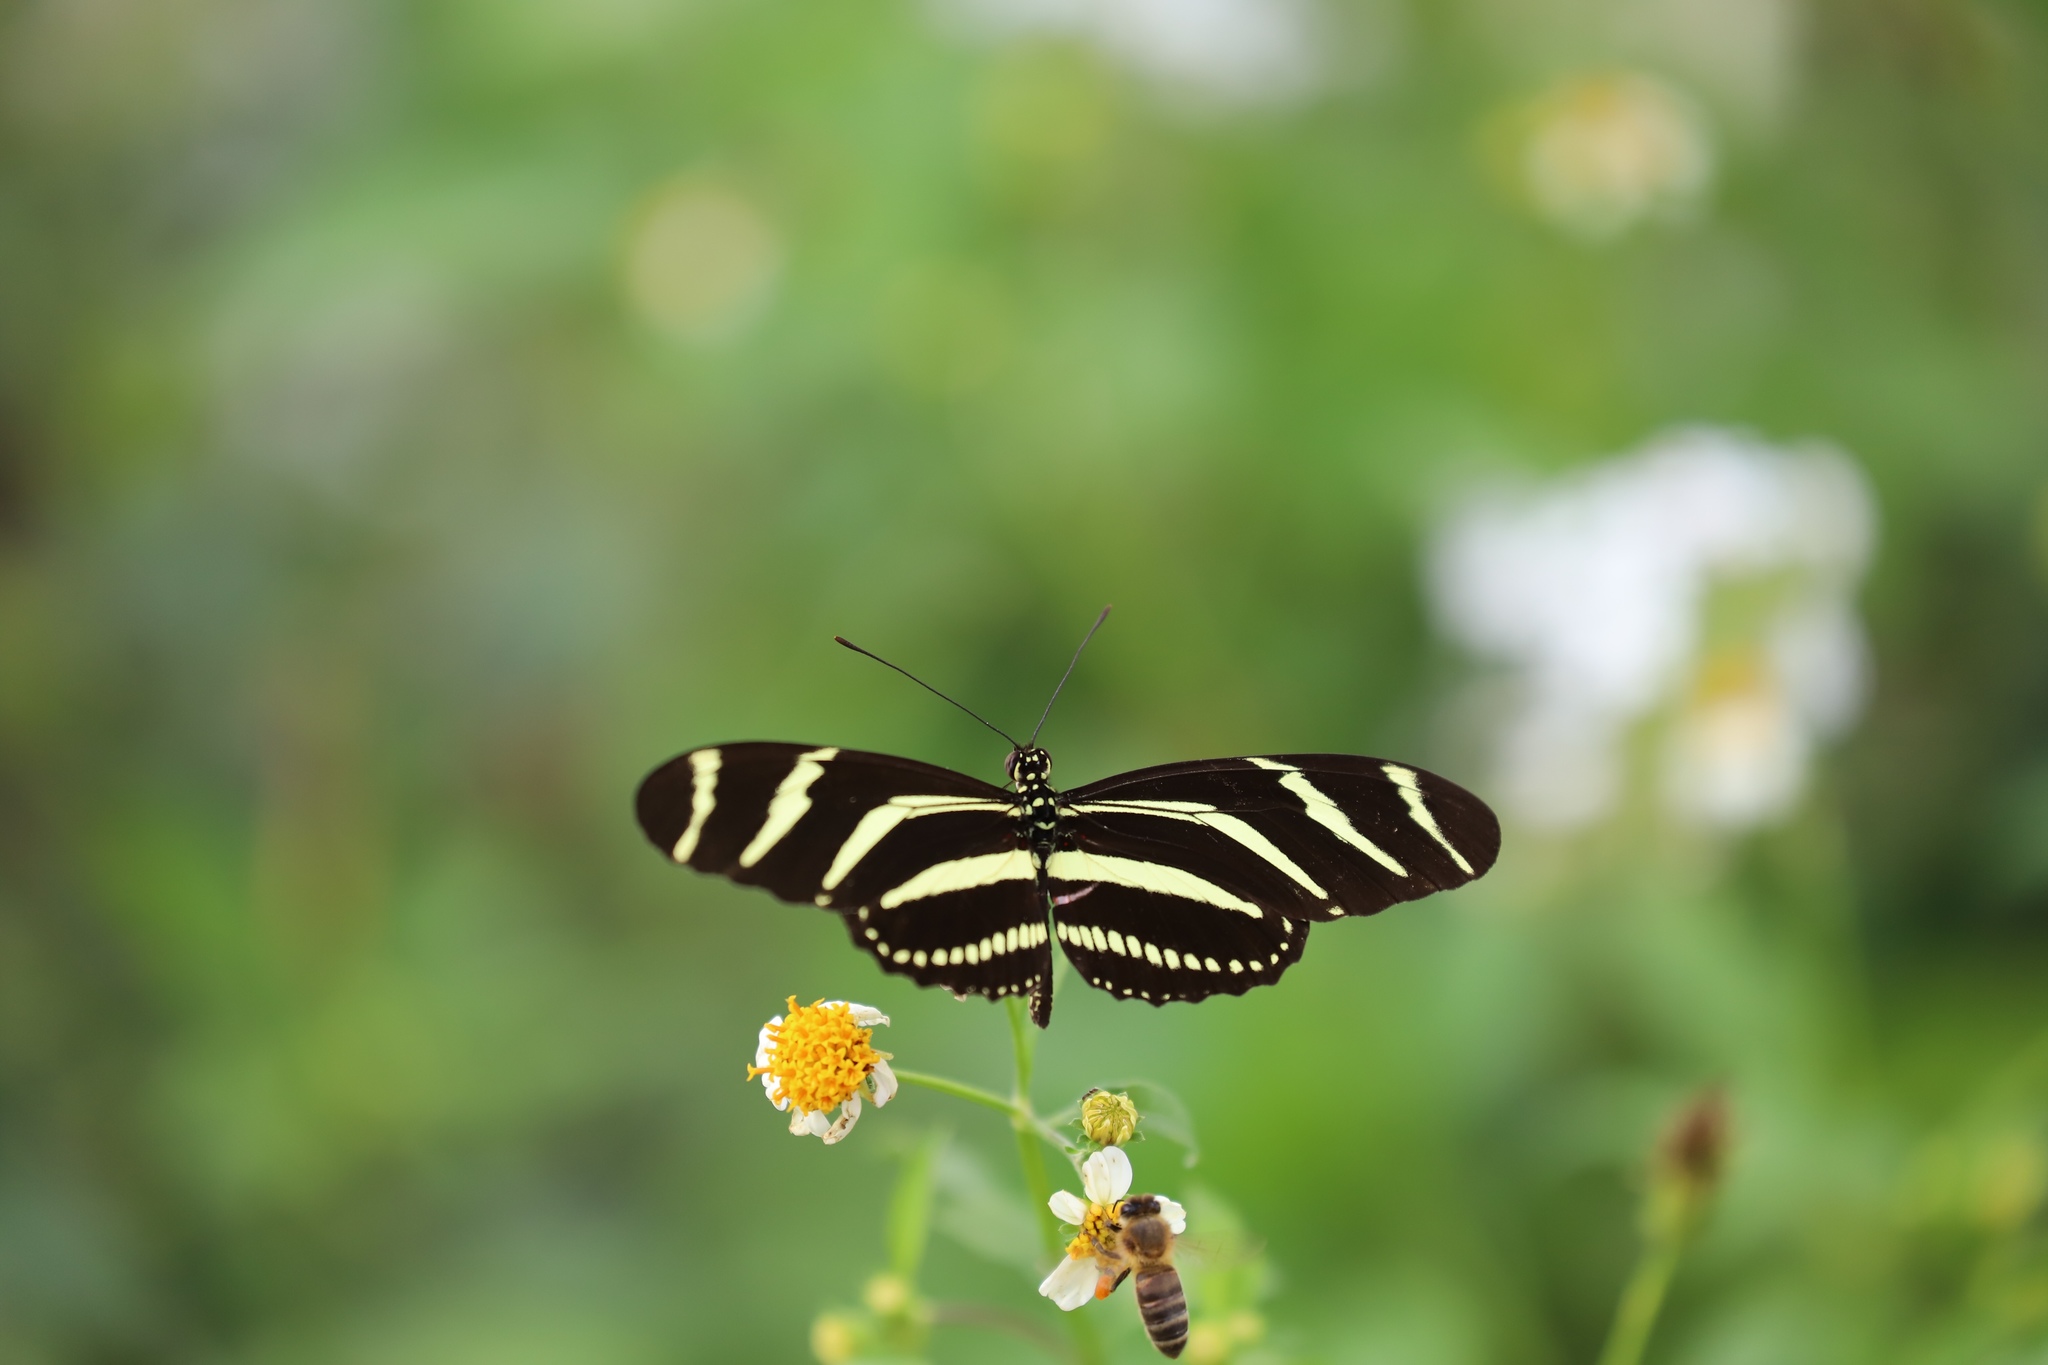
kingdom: Animalia
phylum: Arthropoda
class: Insecta
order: Lepidoptera
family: Nymphalidae
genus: Heliconius
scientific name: Heliconius charithonia
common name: Zebra long wing
